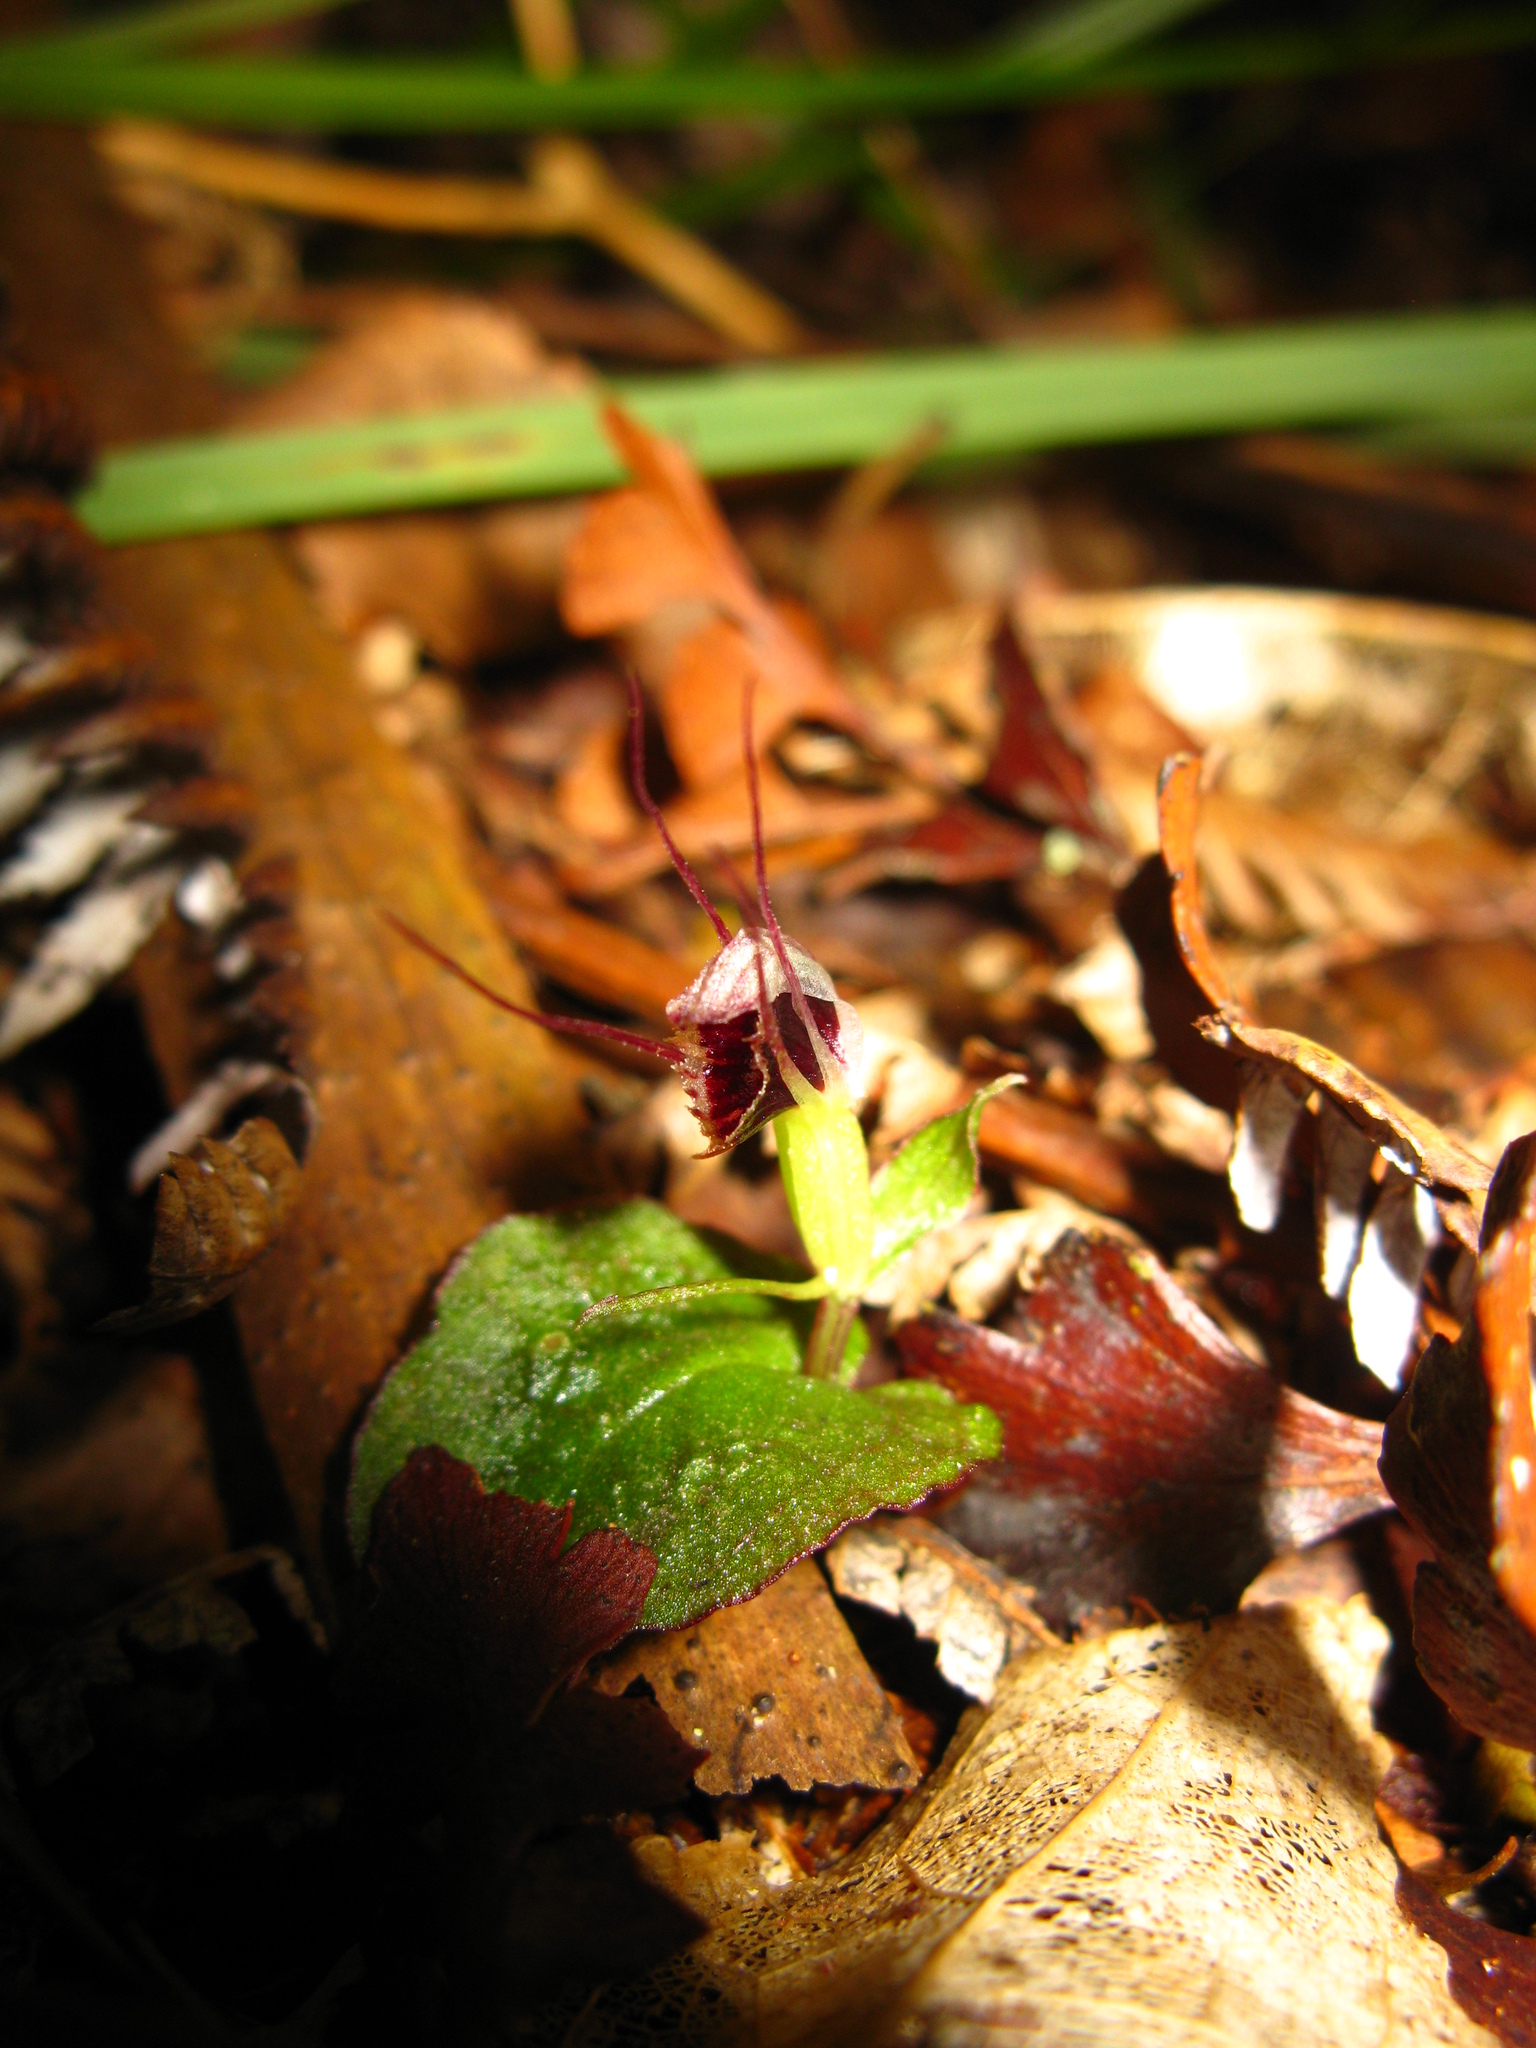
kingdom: Plantae
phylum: Tracheophyta
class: Liliopsida
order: Asparagales
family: Orchidaceae
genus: Corybas
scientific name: Corybas oblongus
